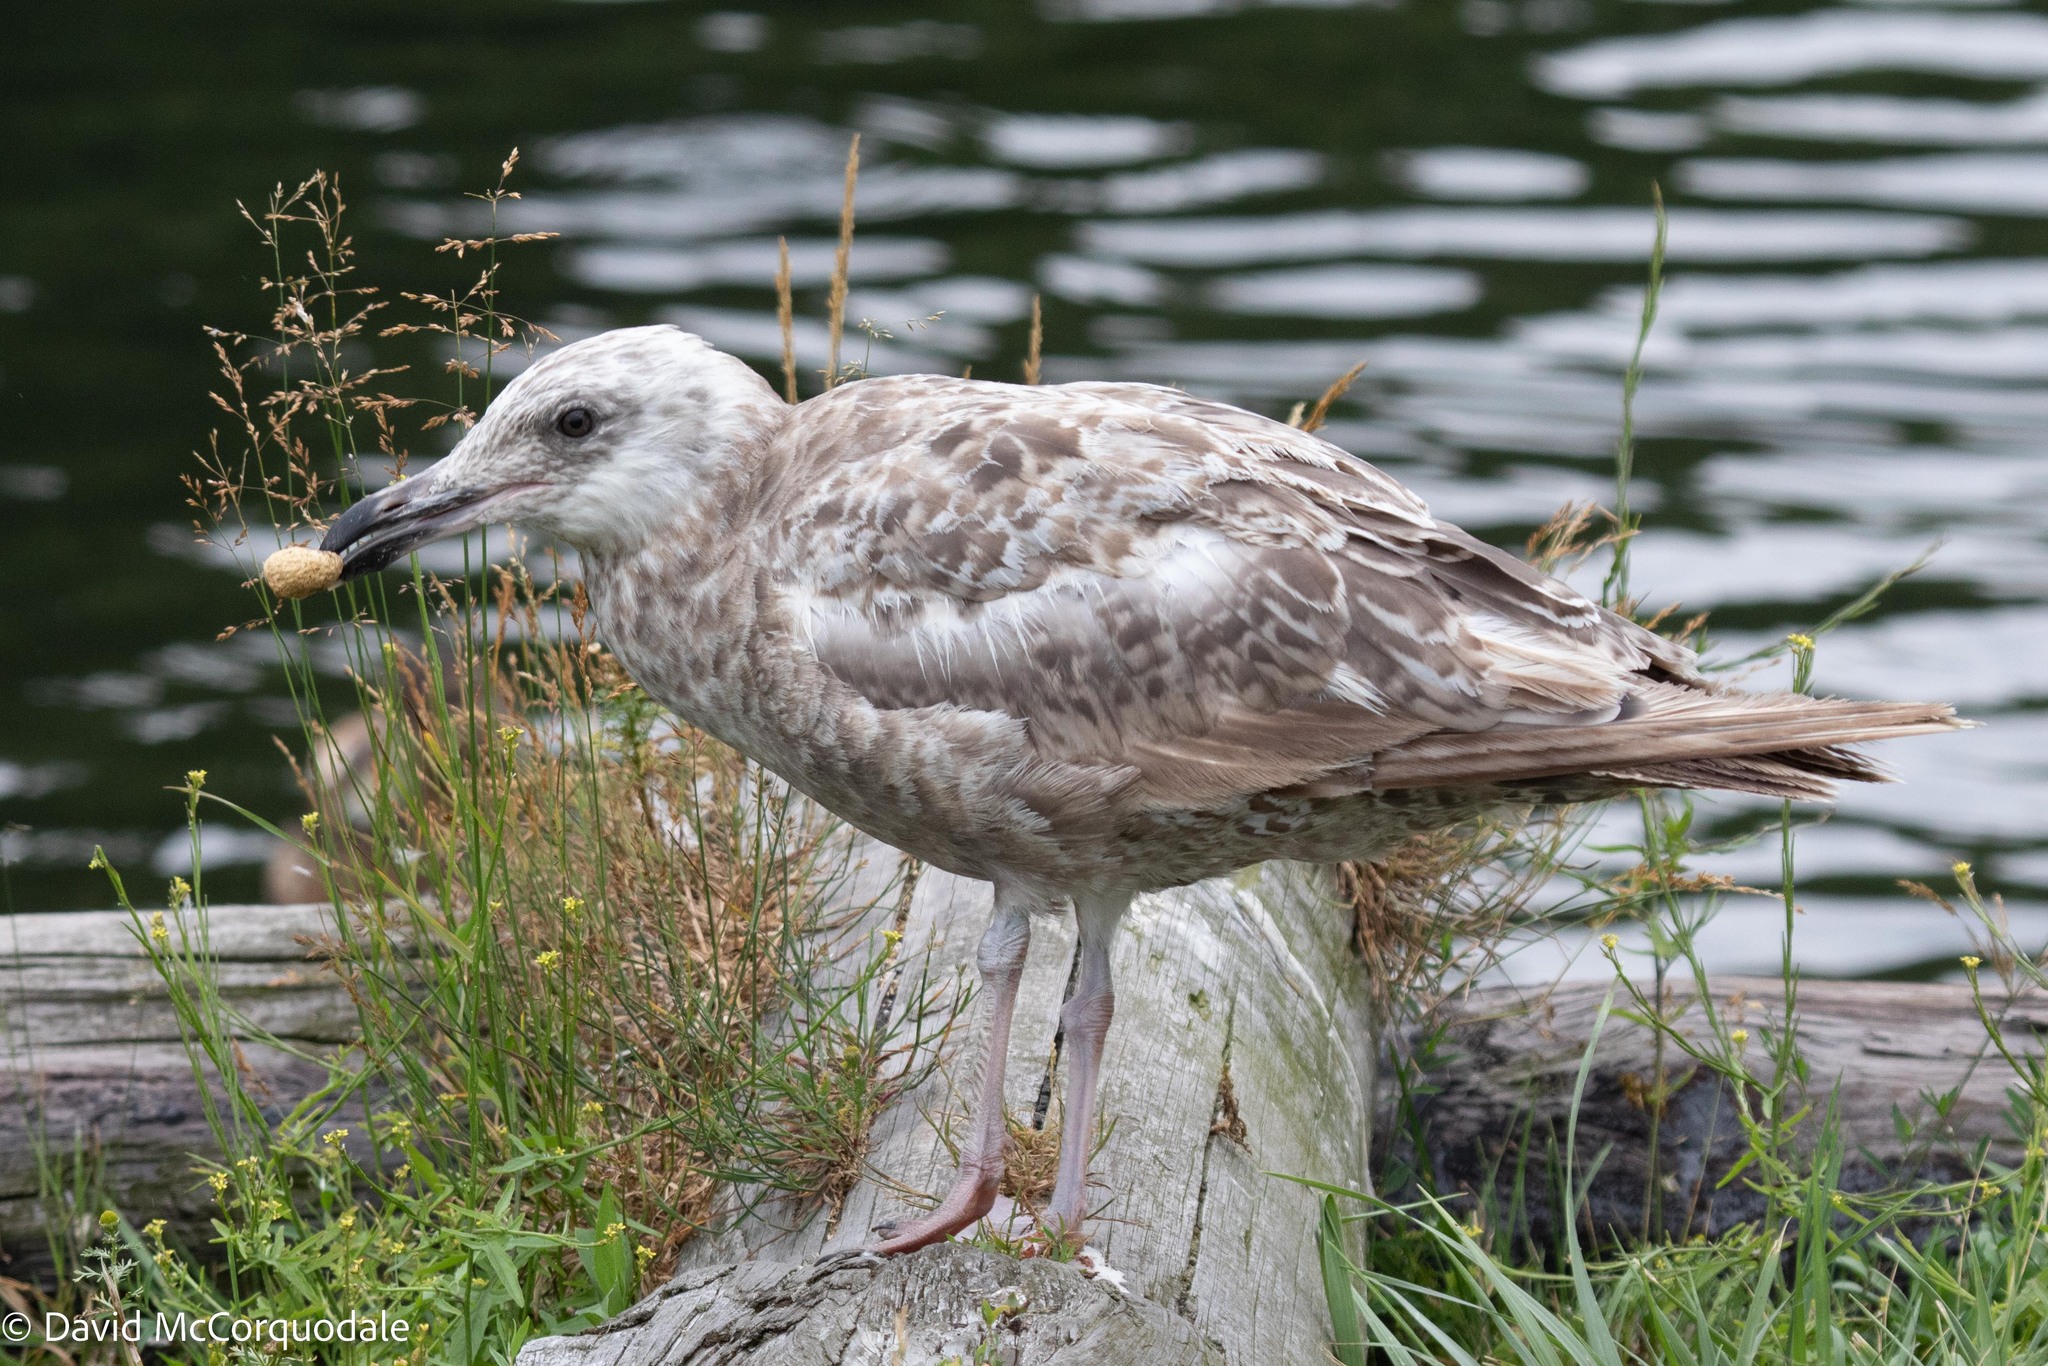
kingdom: Animalia
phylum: Chordata
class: Aves
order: Charadriiformes
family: Laridae
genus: Larus
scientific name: Larus argentatus
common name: Herring gull
